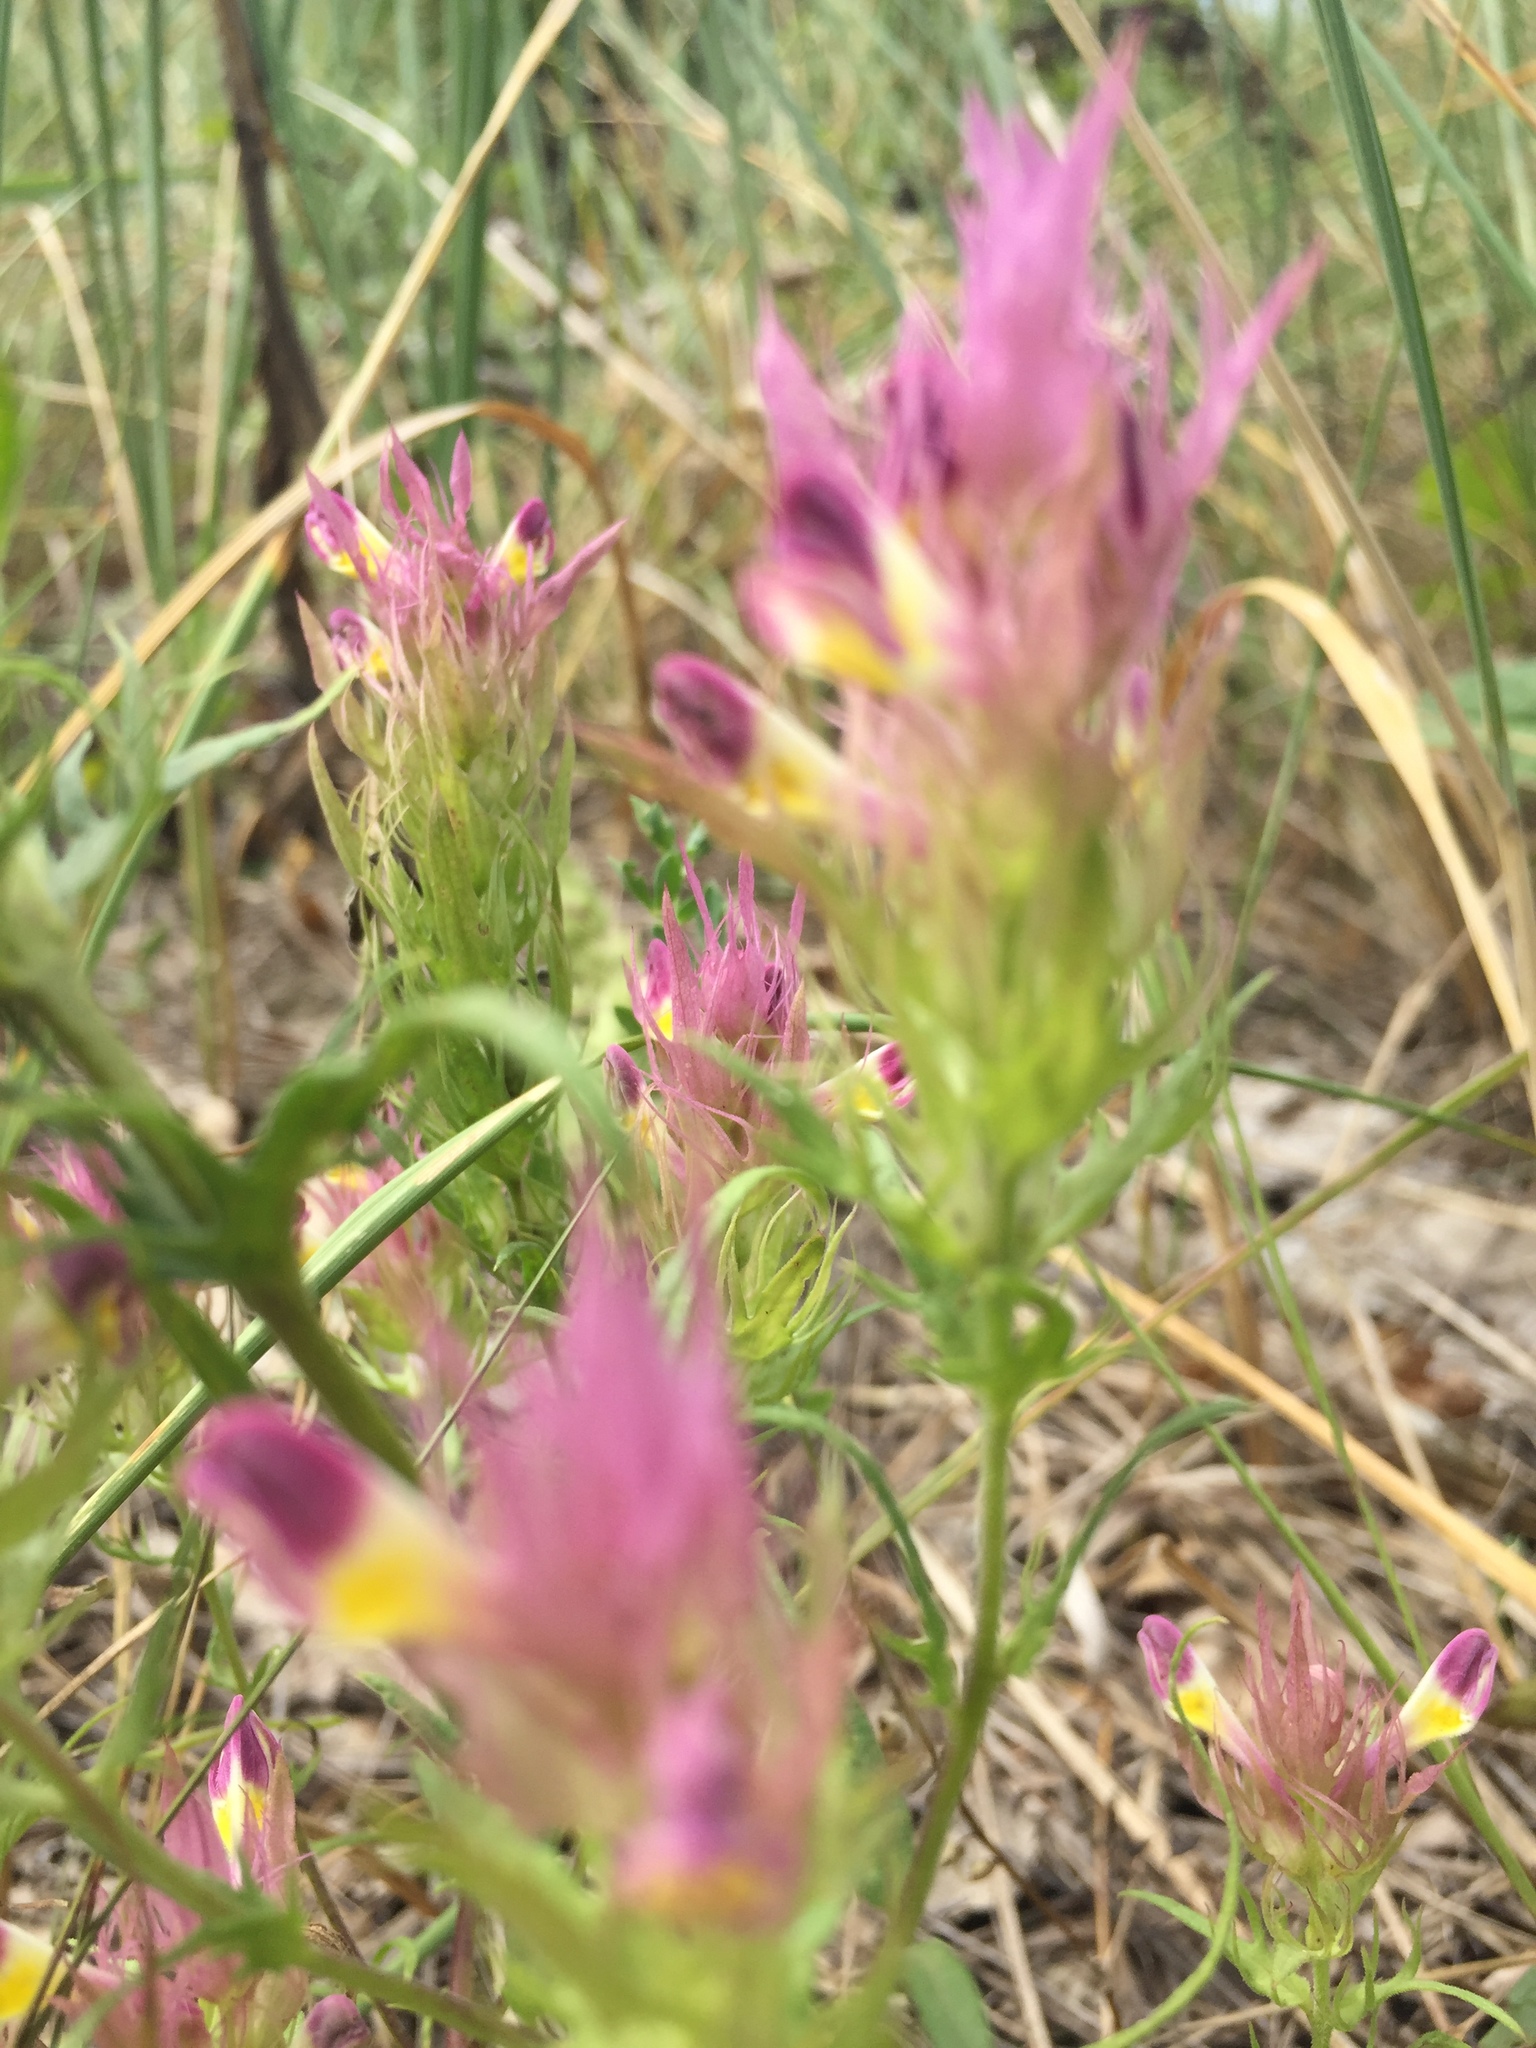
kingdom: Plantae
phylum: Tracheophyta
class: Magnoliopsida
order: Lamiales
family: Orobanchaceae
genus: Melampyrum
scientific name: Melampyrum arvense
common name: Field cow-wheat
